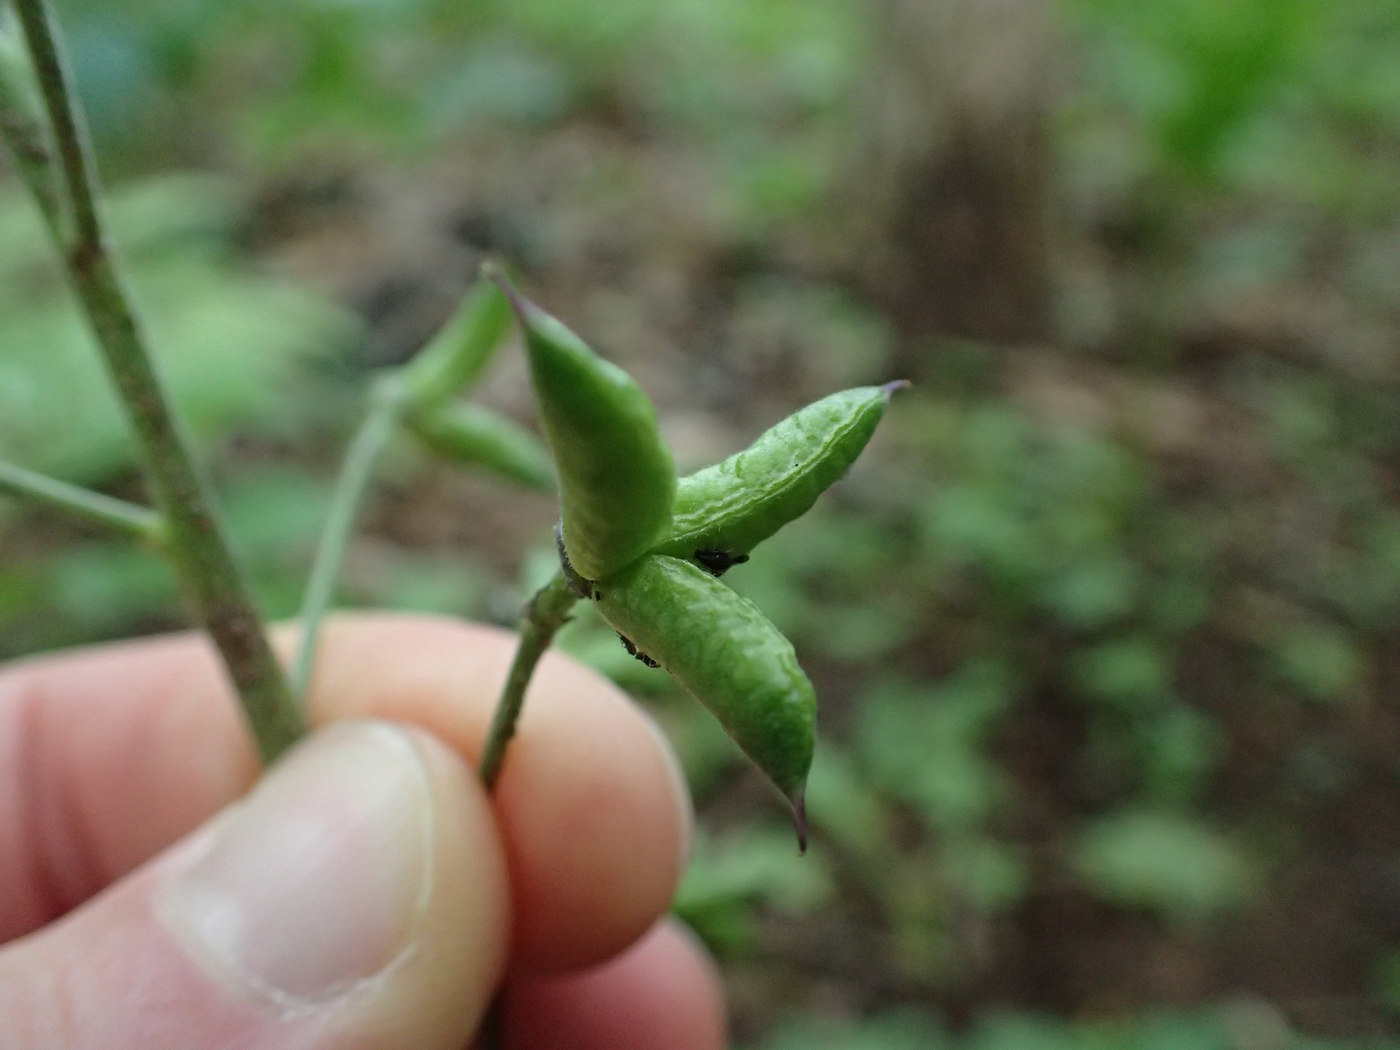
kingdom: Plantae
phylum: Tracheophyta
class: Magnoliopsida
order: Ranunculales
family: Ranunculaceae
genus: Delphinium
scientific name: Delphinium tricorne
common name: Dwarf larkspur
